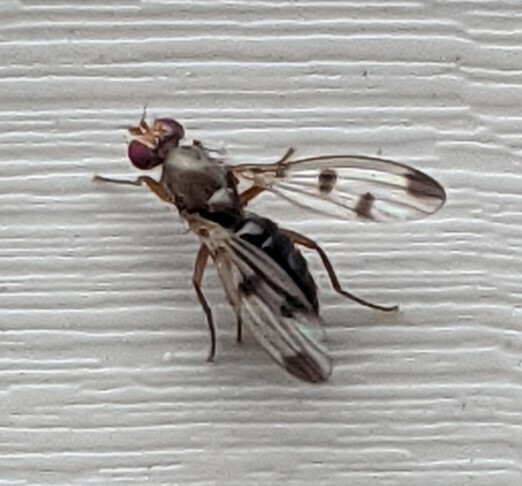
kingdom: Animalia
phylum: Arthropoda
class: Insecta
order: Diptera
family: Opomyzidae
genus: Geomyza
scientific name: Geomyza tripunctata
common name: Cereal fly
